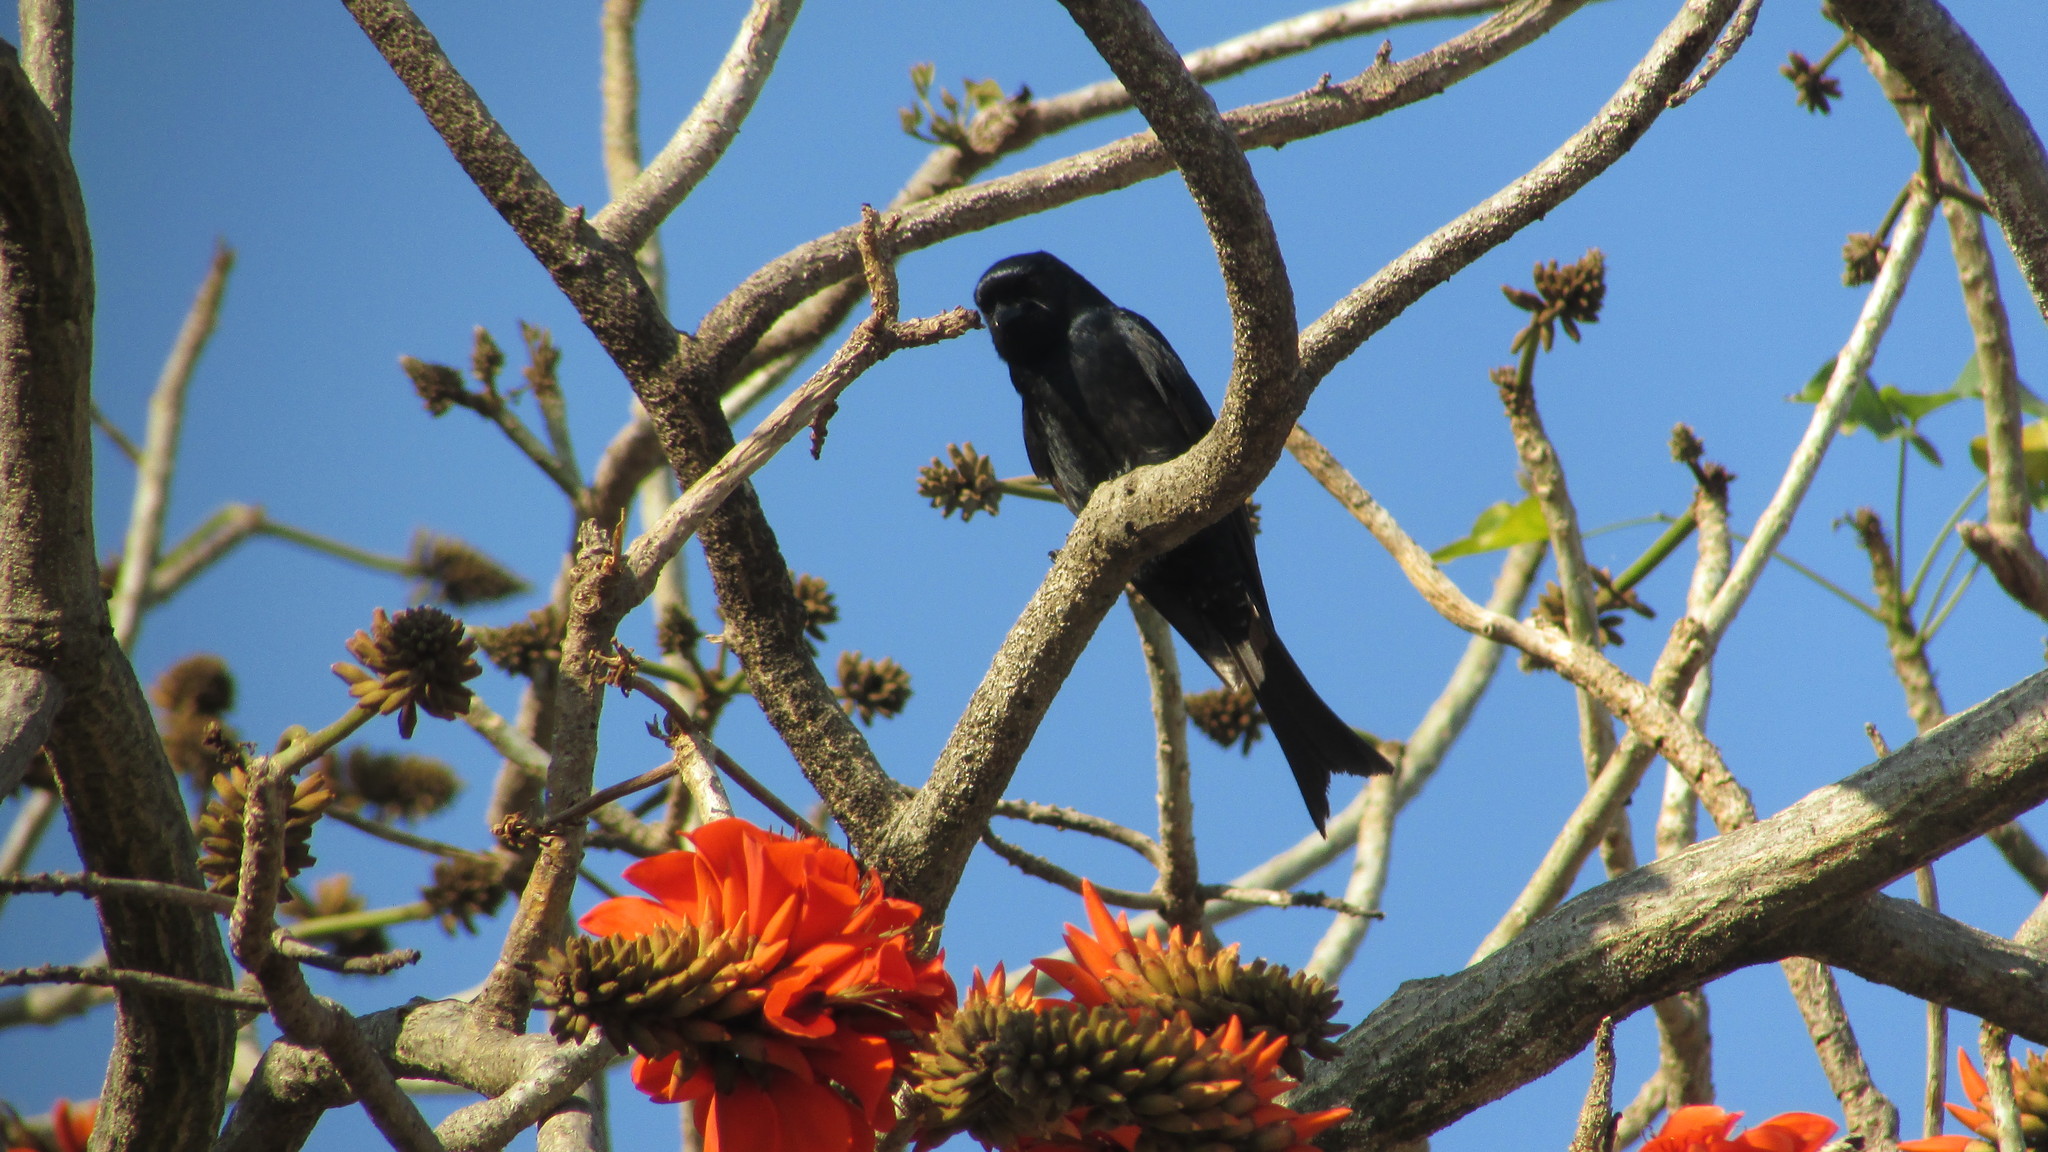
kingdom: Animalia
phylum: Chordata
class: Aves
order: Passeriformes
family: Dicruridae
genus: Dicrurus
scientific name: Dicrurus adsimilis
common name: Fork-tailed drongo
